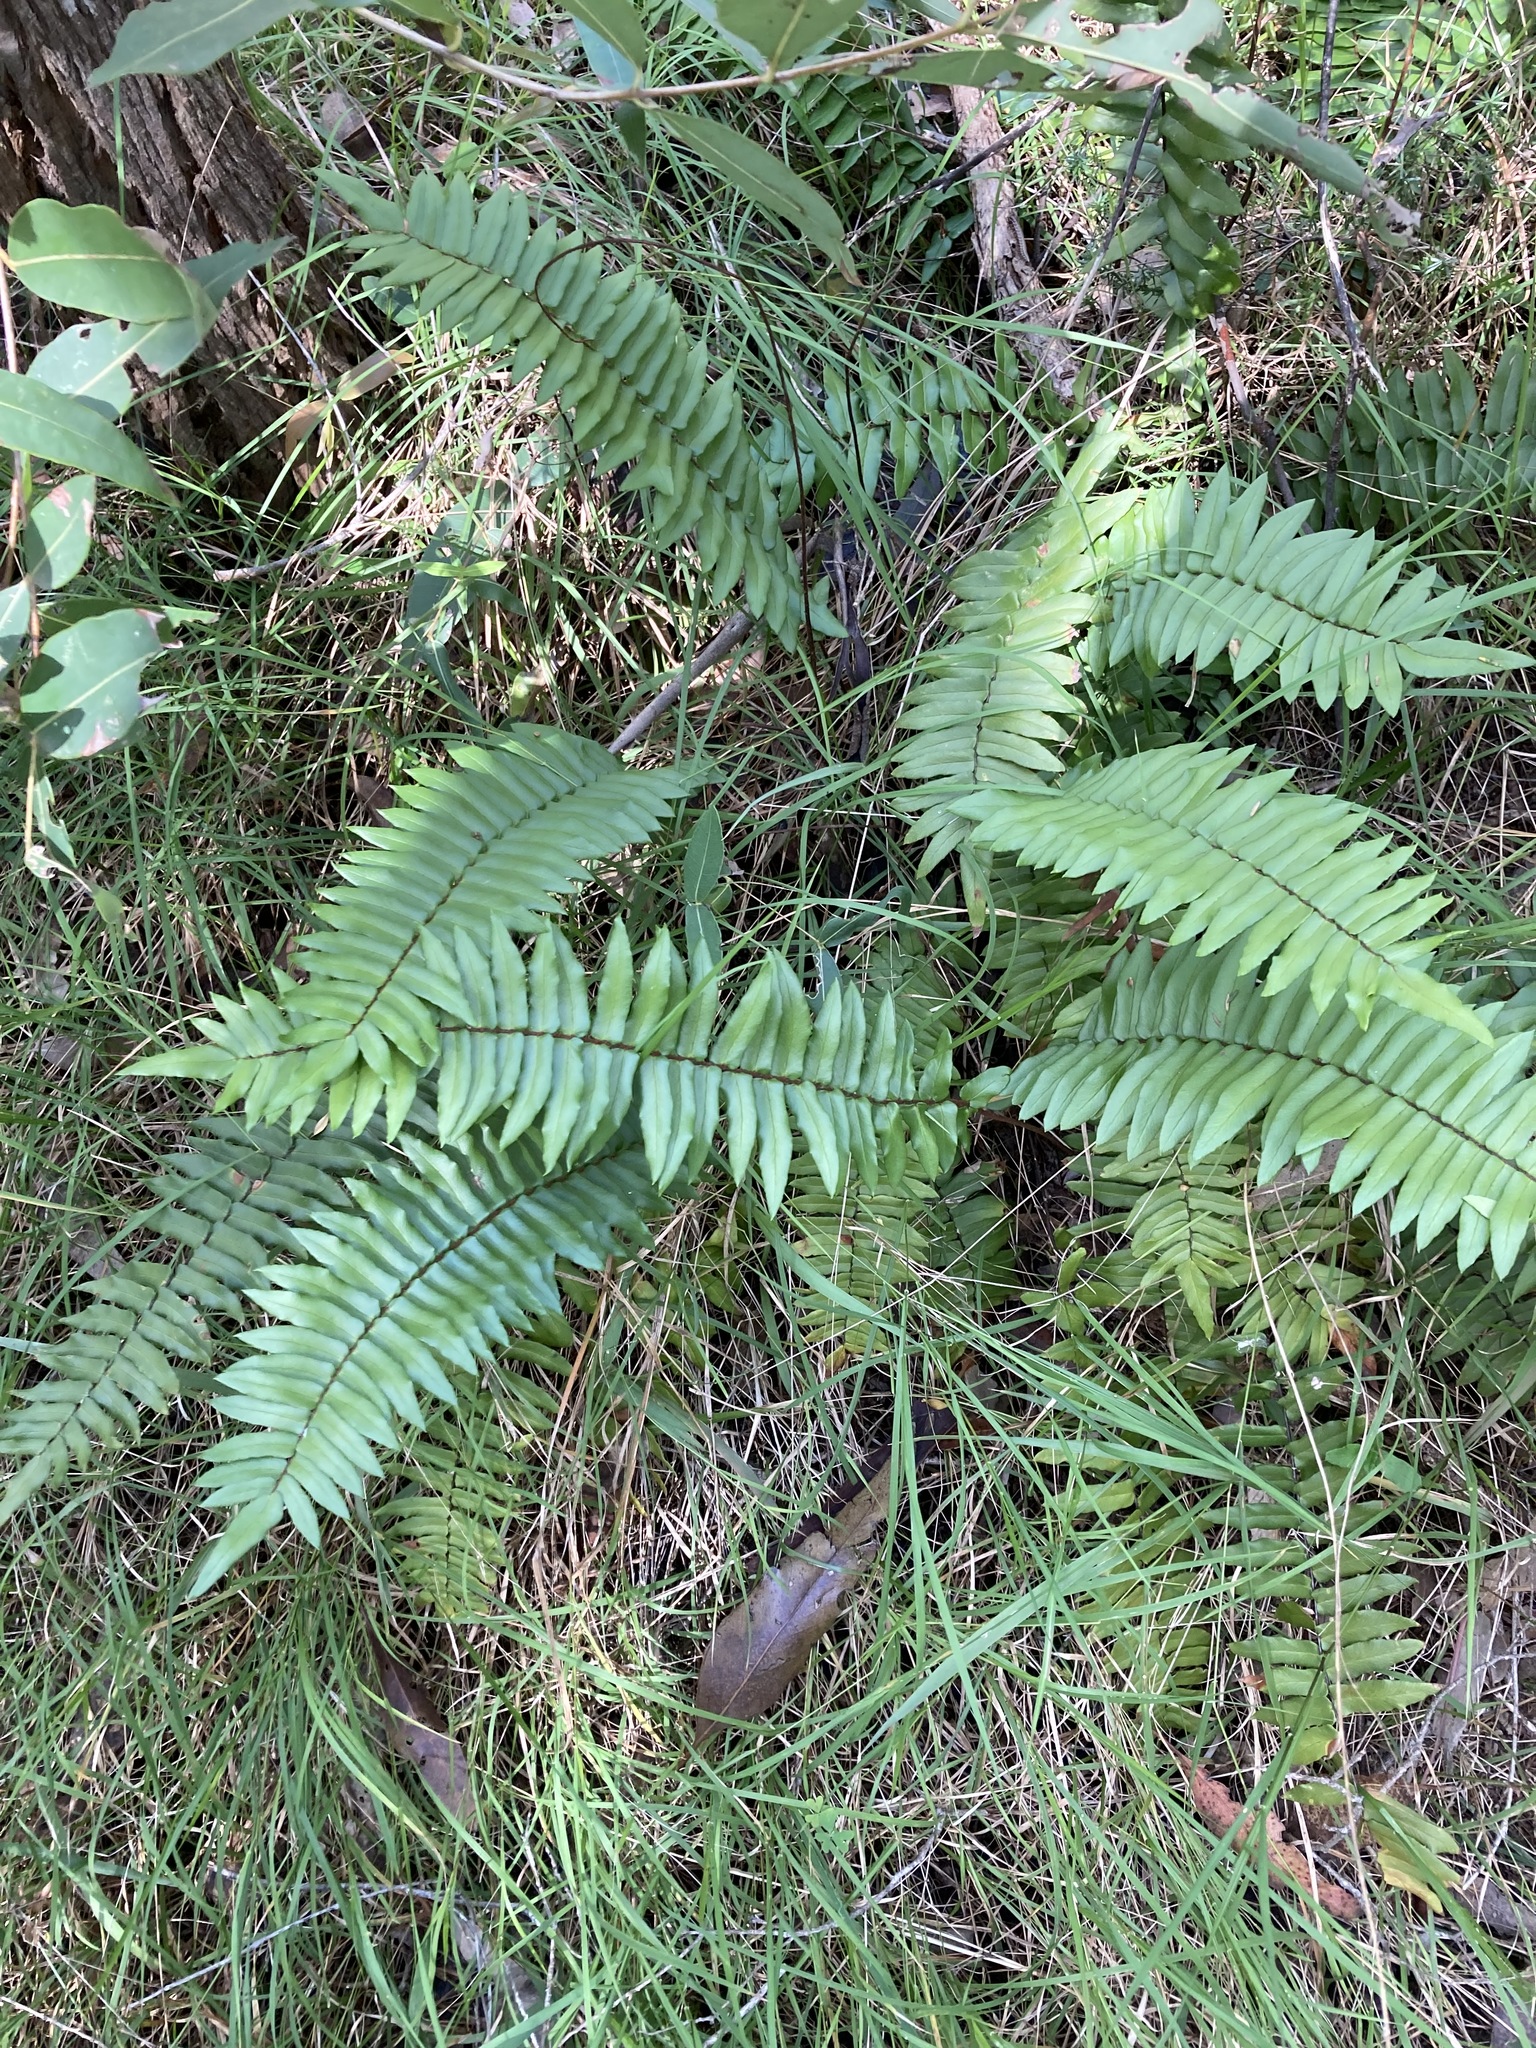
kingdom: Plantae
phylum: Tracheophyta
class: Polypodiopsida
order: Polypodiales
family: Pteridaceae
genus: Pellaea
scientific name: Pellaea falcata
